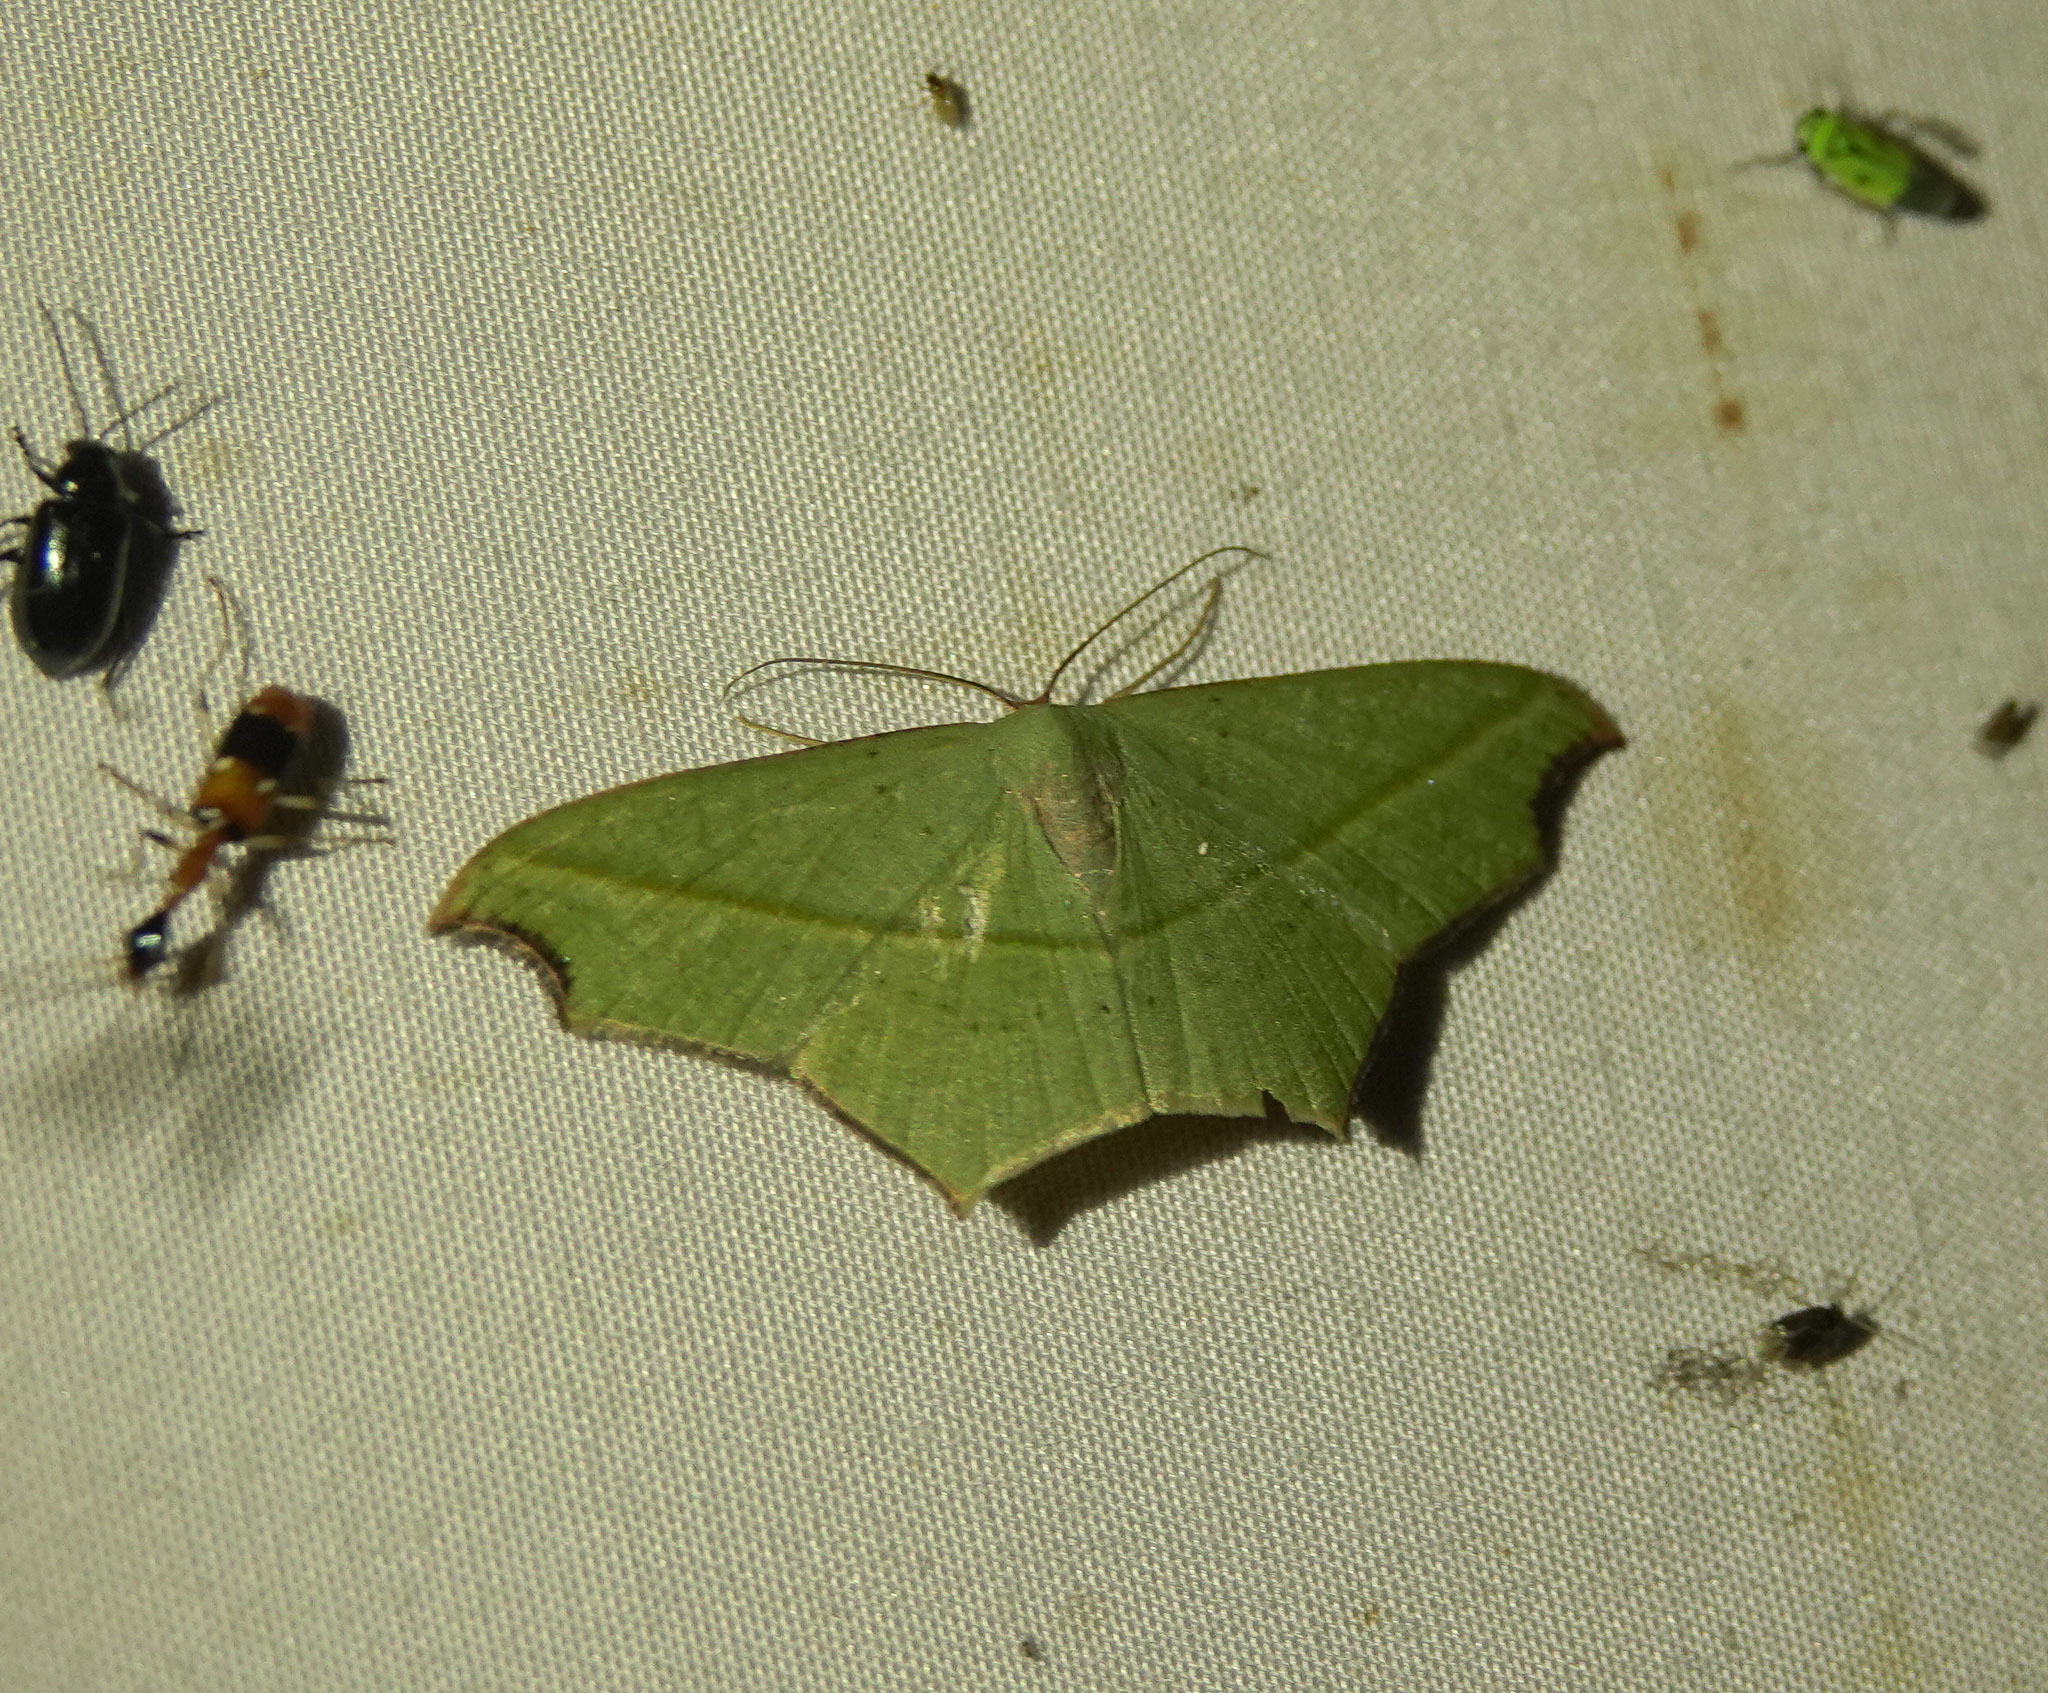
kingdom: Animalia
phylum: Arthropoda
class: Insecta
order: Lepidoptera
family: Geometridae
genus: Traminda
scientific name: Traminda aventiaria
